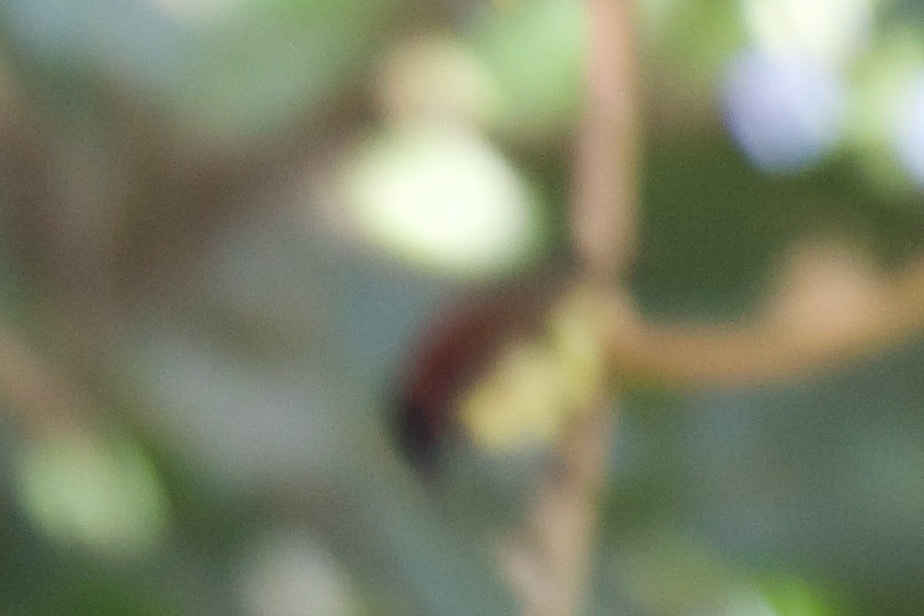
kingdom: Animalia
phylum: Chordata
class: Aves
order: Passeriformes
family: Nectariniidae
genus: Leptocoma
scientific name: Leptocoma minima
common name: Crimson-backed sunbird
